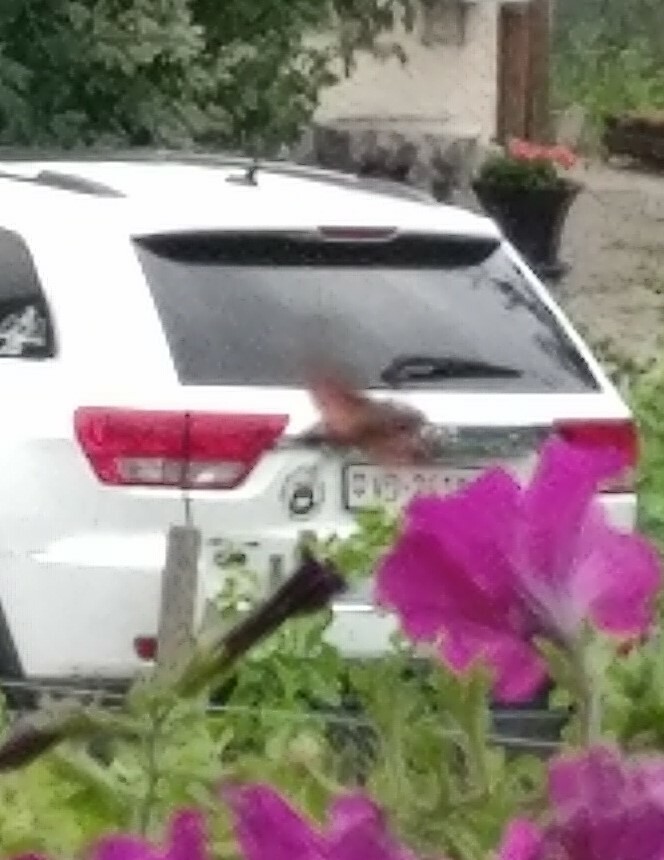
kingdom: Animalia
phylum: Arthropoda
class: Insecta
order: Lepidoptera
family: Sphingidae
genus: Macroglossum
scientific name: Macroglossum stellatarum
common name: Humming-bird hawk-moth
